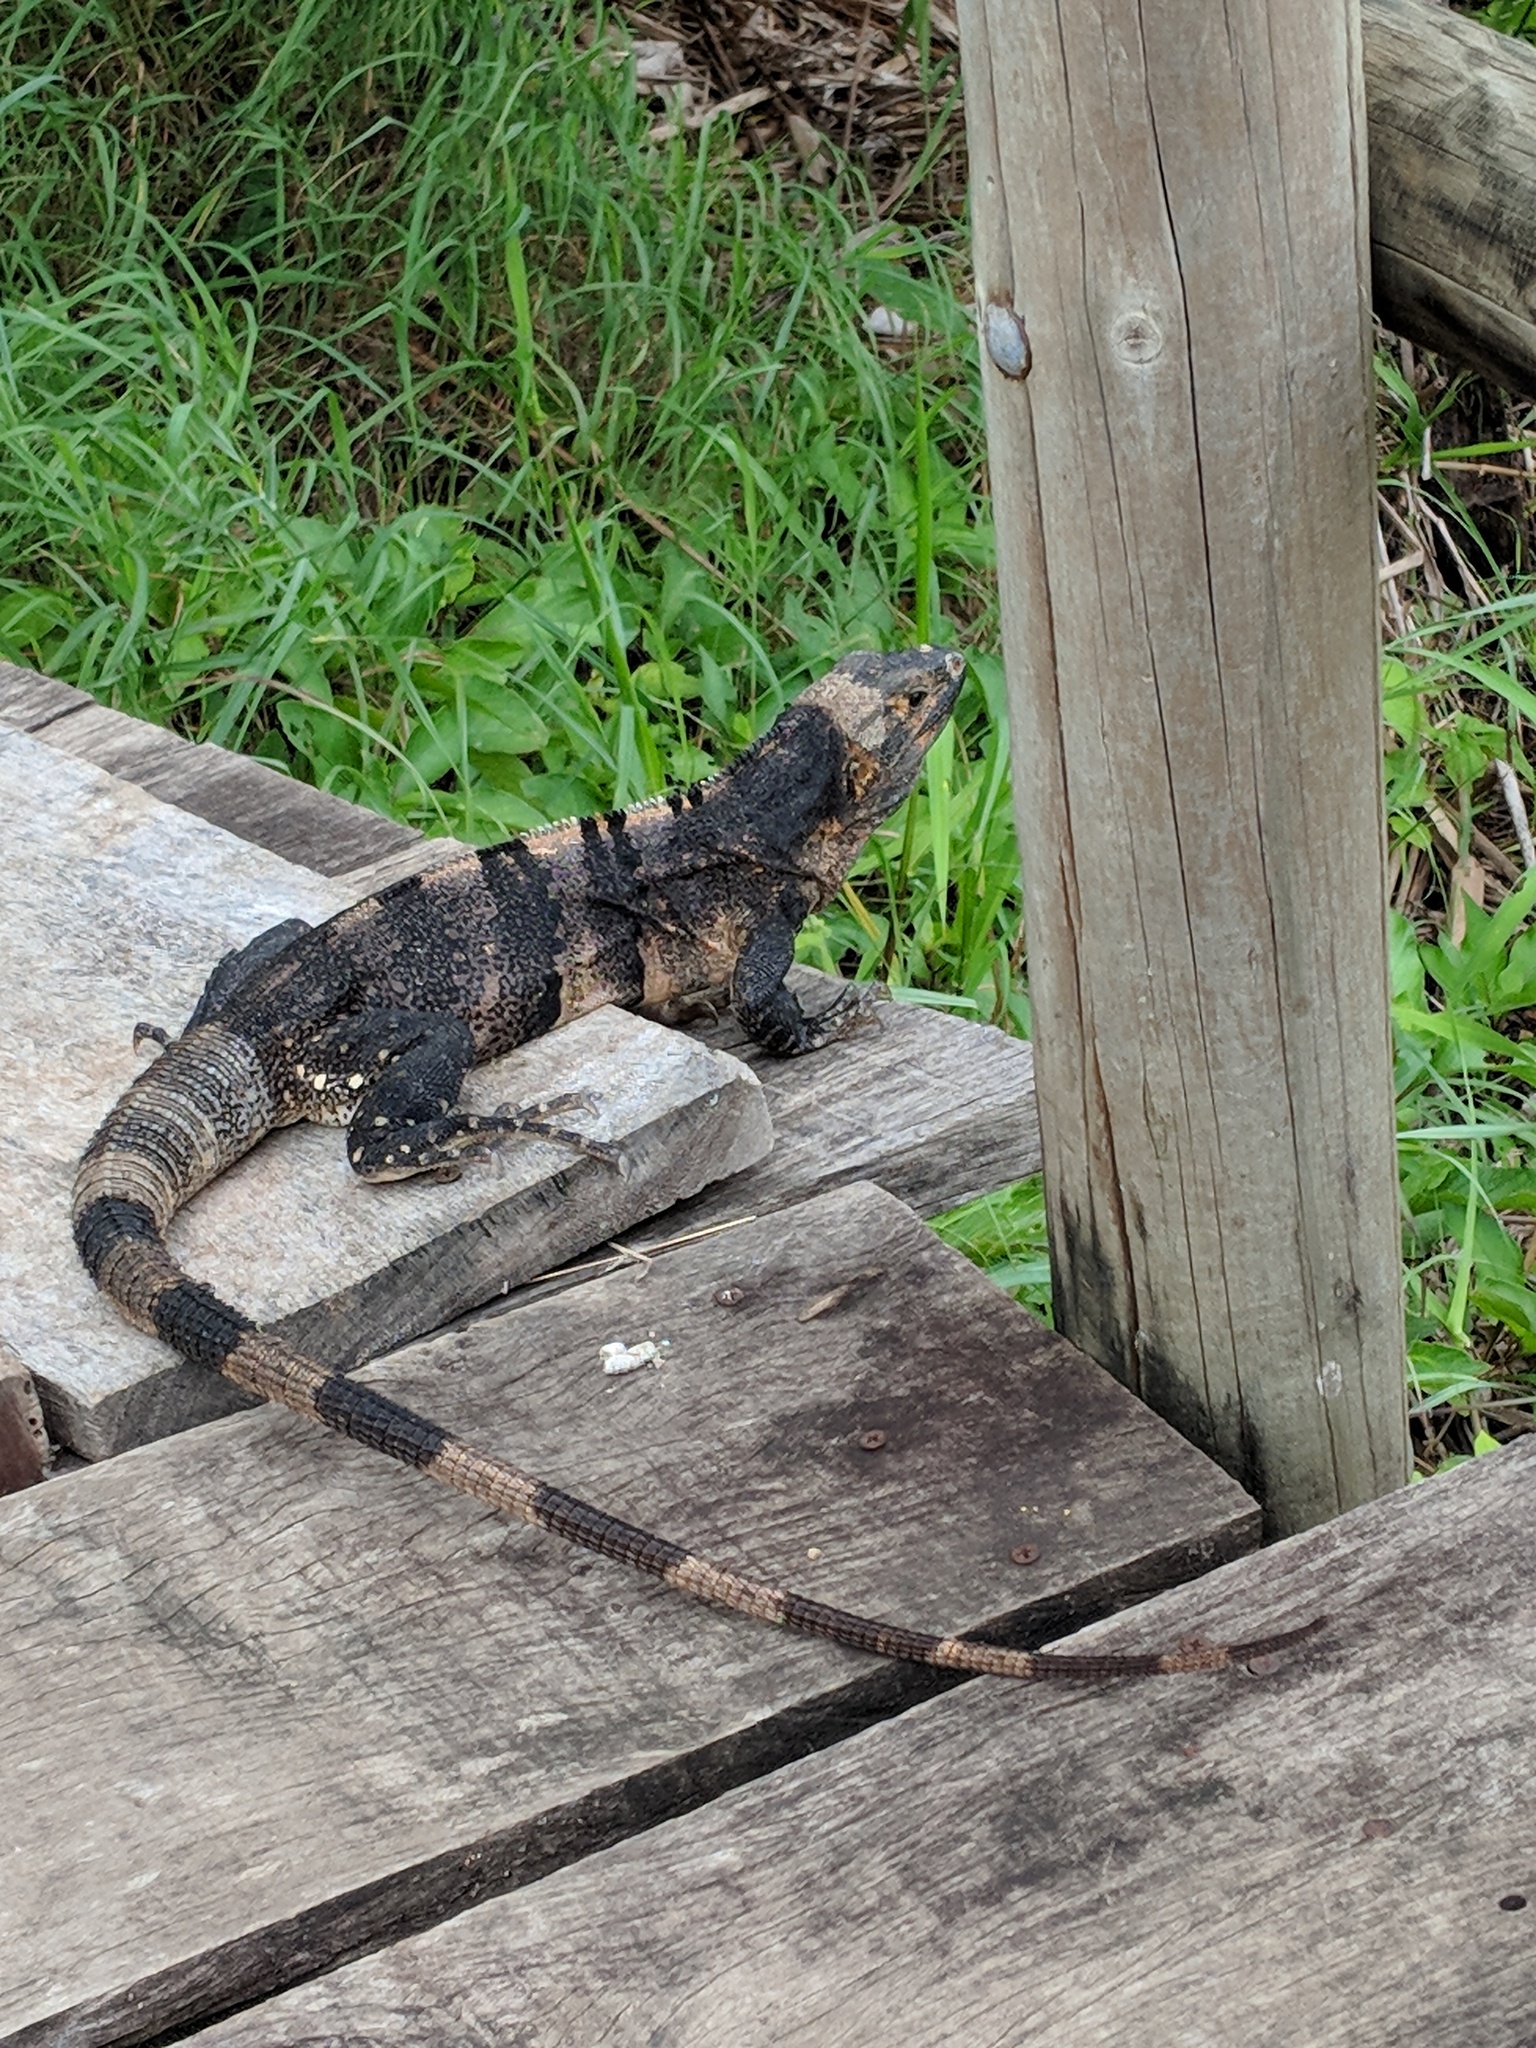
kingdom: Animalia
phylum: Chordata
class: Squamata
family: Iguanidae
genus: Ctenosaura
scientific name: Ctenosaura similis
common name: Black spiny-tailed iguana
